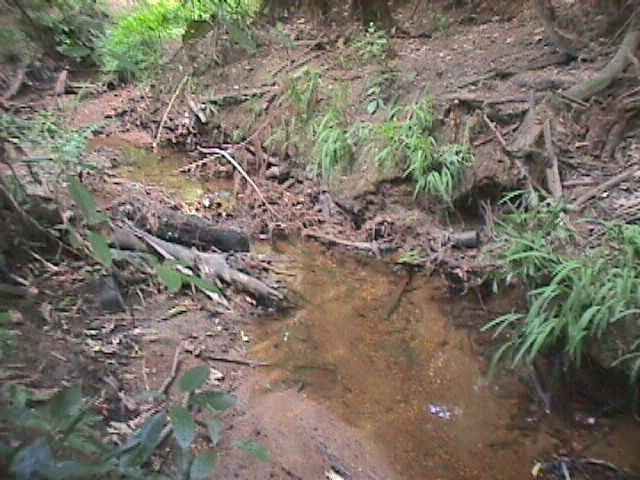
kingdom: Plantae
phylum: Tracheophyta
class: Liliopsida
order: Asparagales
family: Iridaceae
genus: Crocosmia
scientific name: Crocosmia crocosmiiflora
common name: Montbretia
